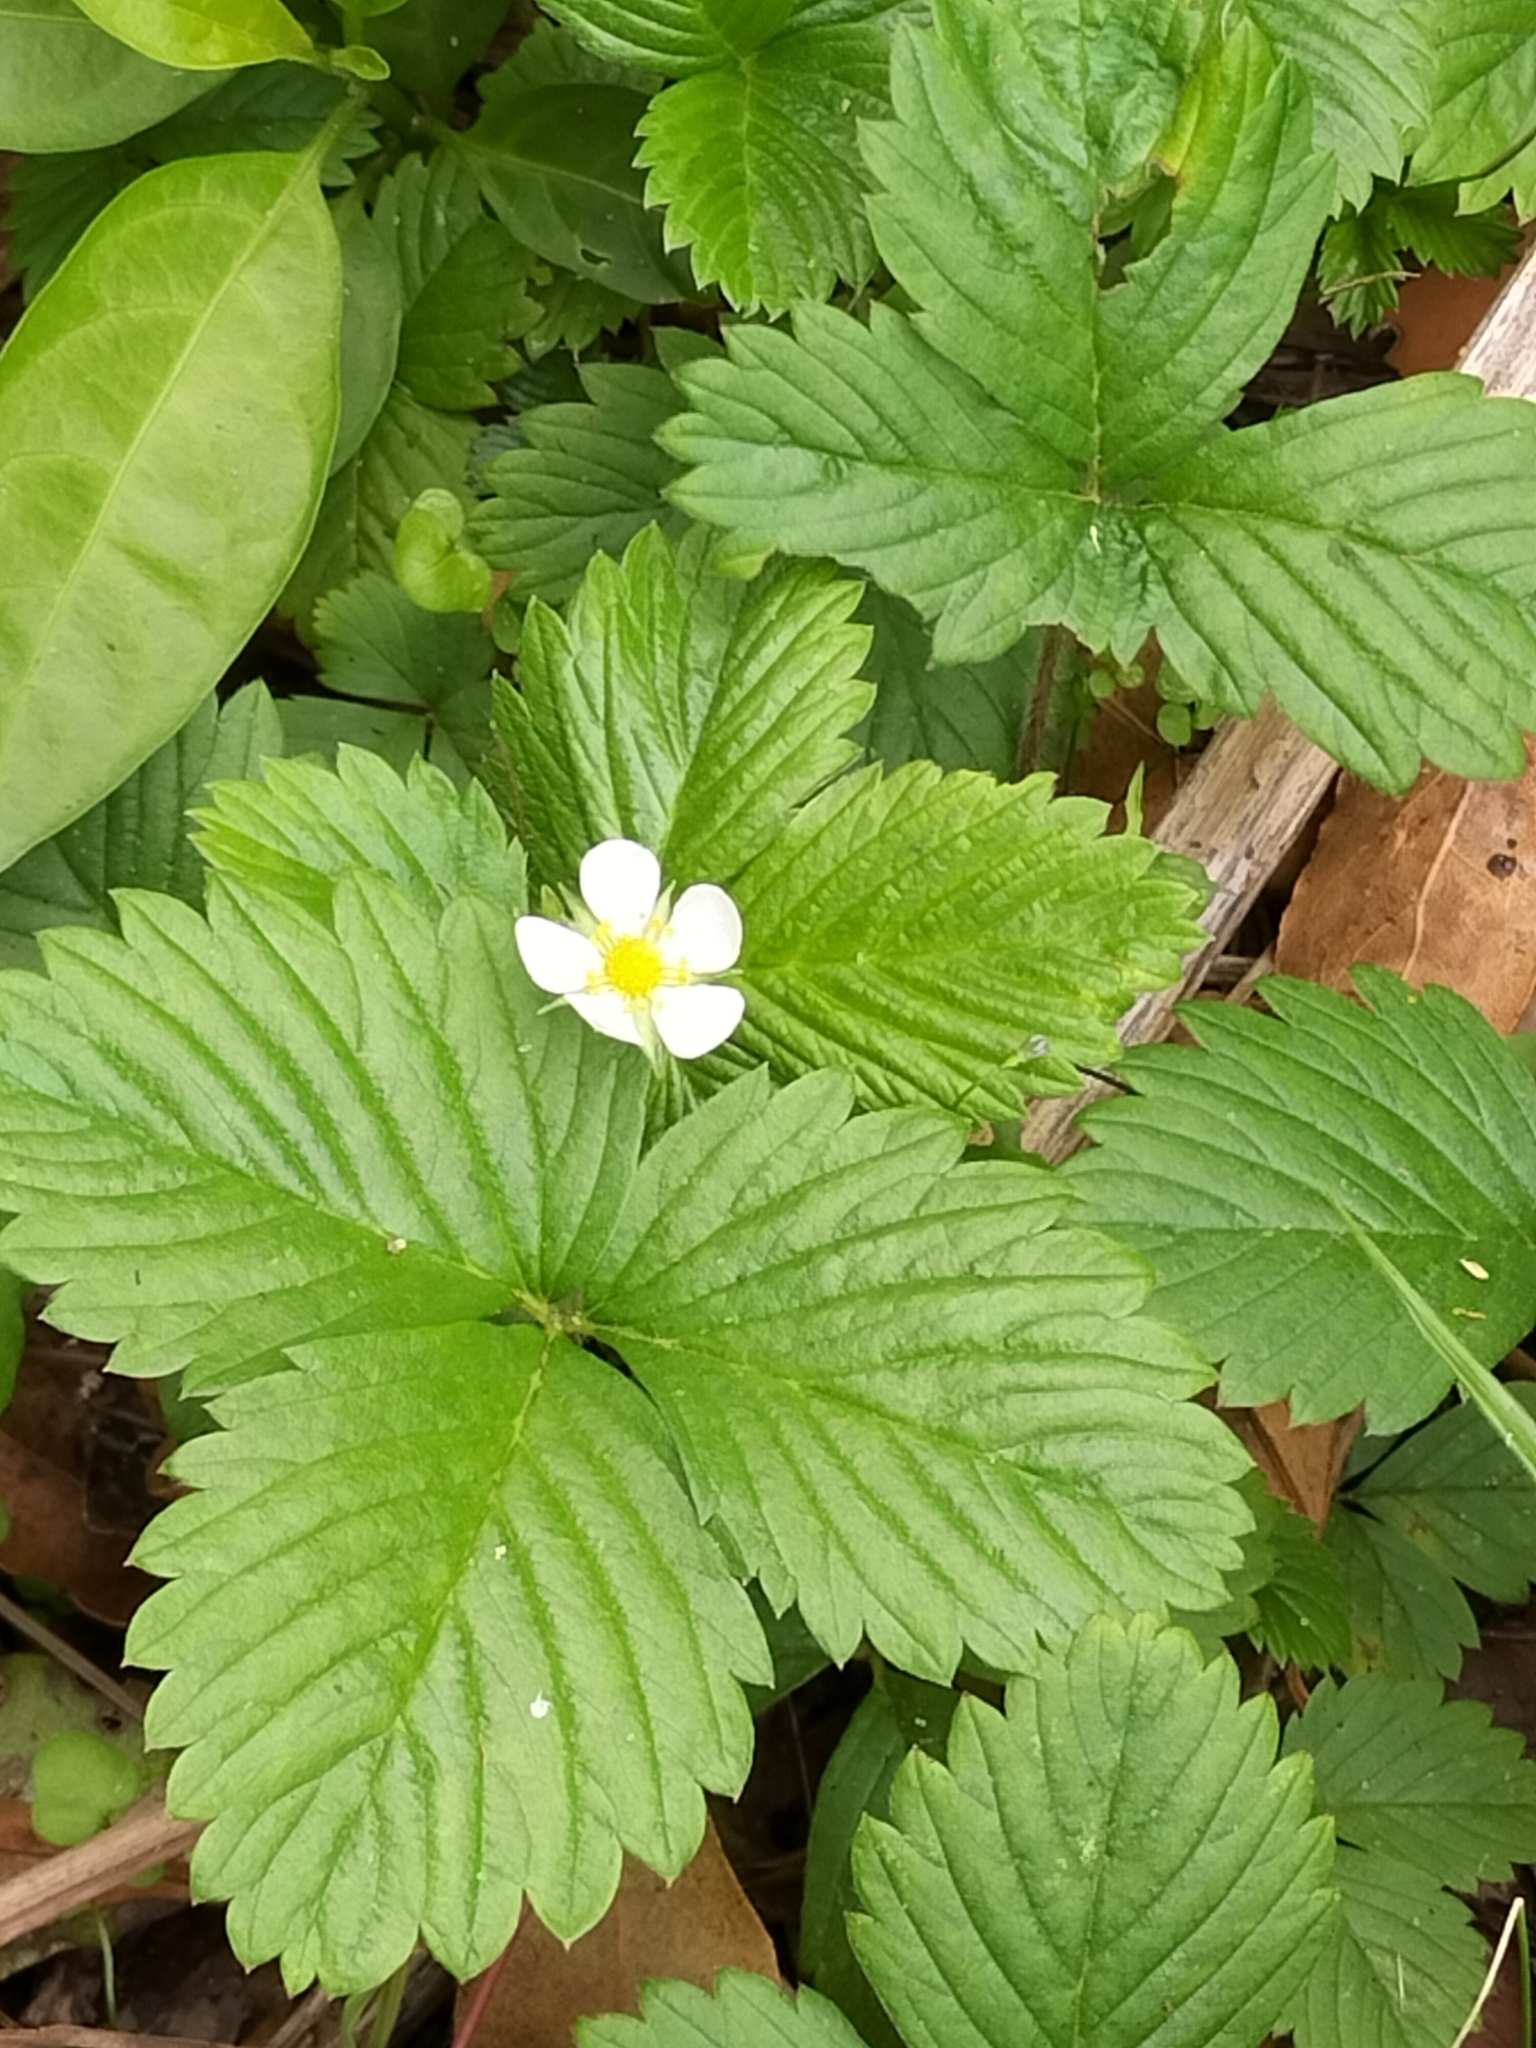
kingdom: Plantae
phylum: Tracheophyta
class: Magnoliopsida
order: Rosales
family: Rosaceae
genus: Fragaria
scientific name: Fragaria vesca
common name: Wild strawberry
